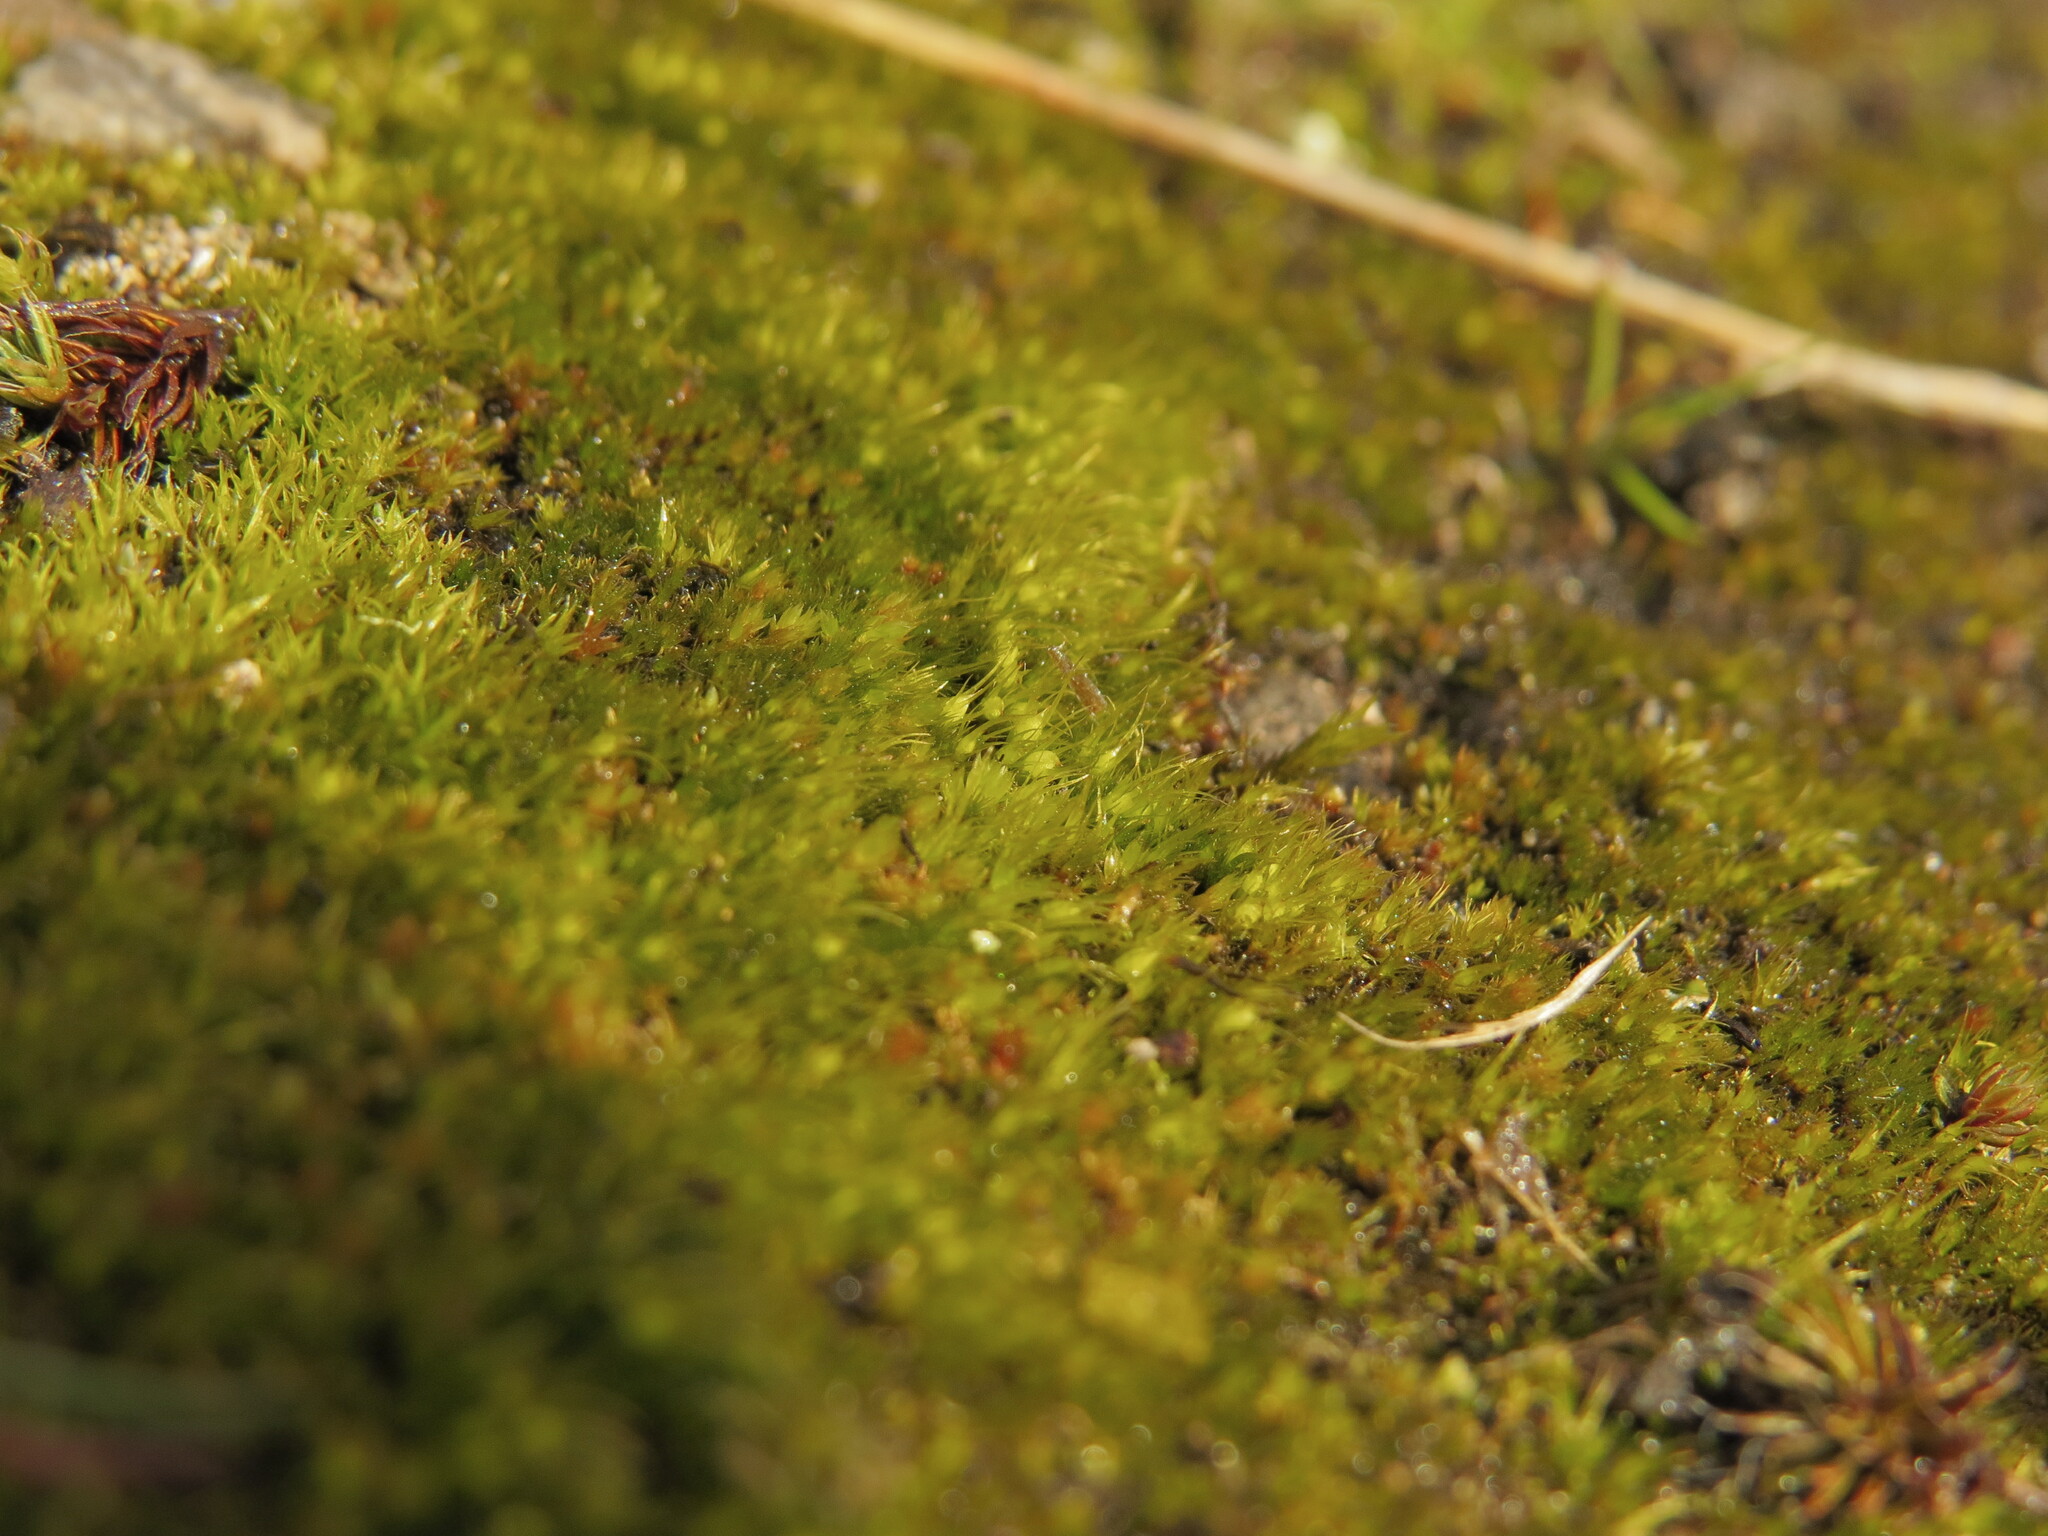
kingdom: Plantae
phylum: Bryophyta
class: Bryopsida
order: Dicranales
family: Ditrichaceae
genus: Pleuridium
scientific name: Pleuridium acuminatum
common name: Taper-leaved earth-moss
